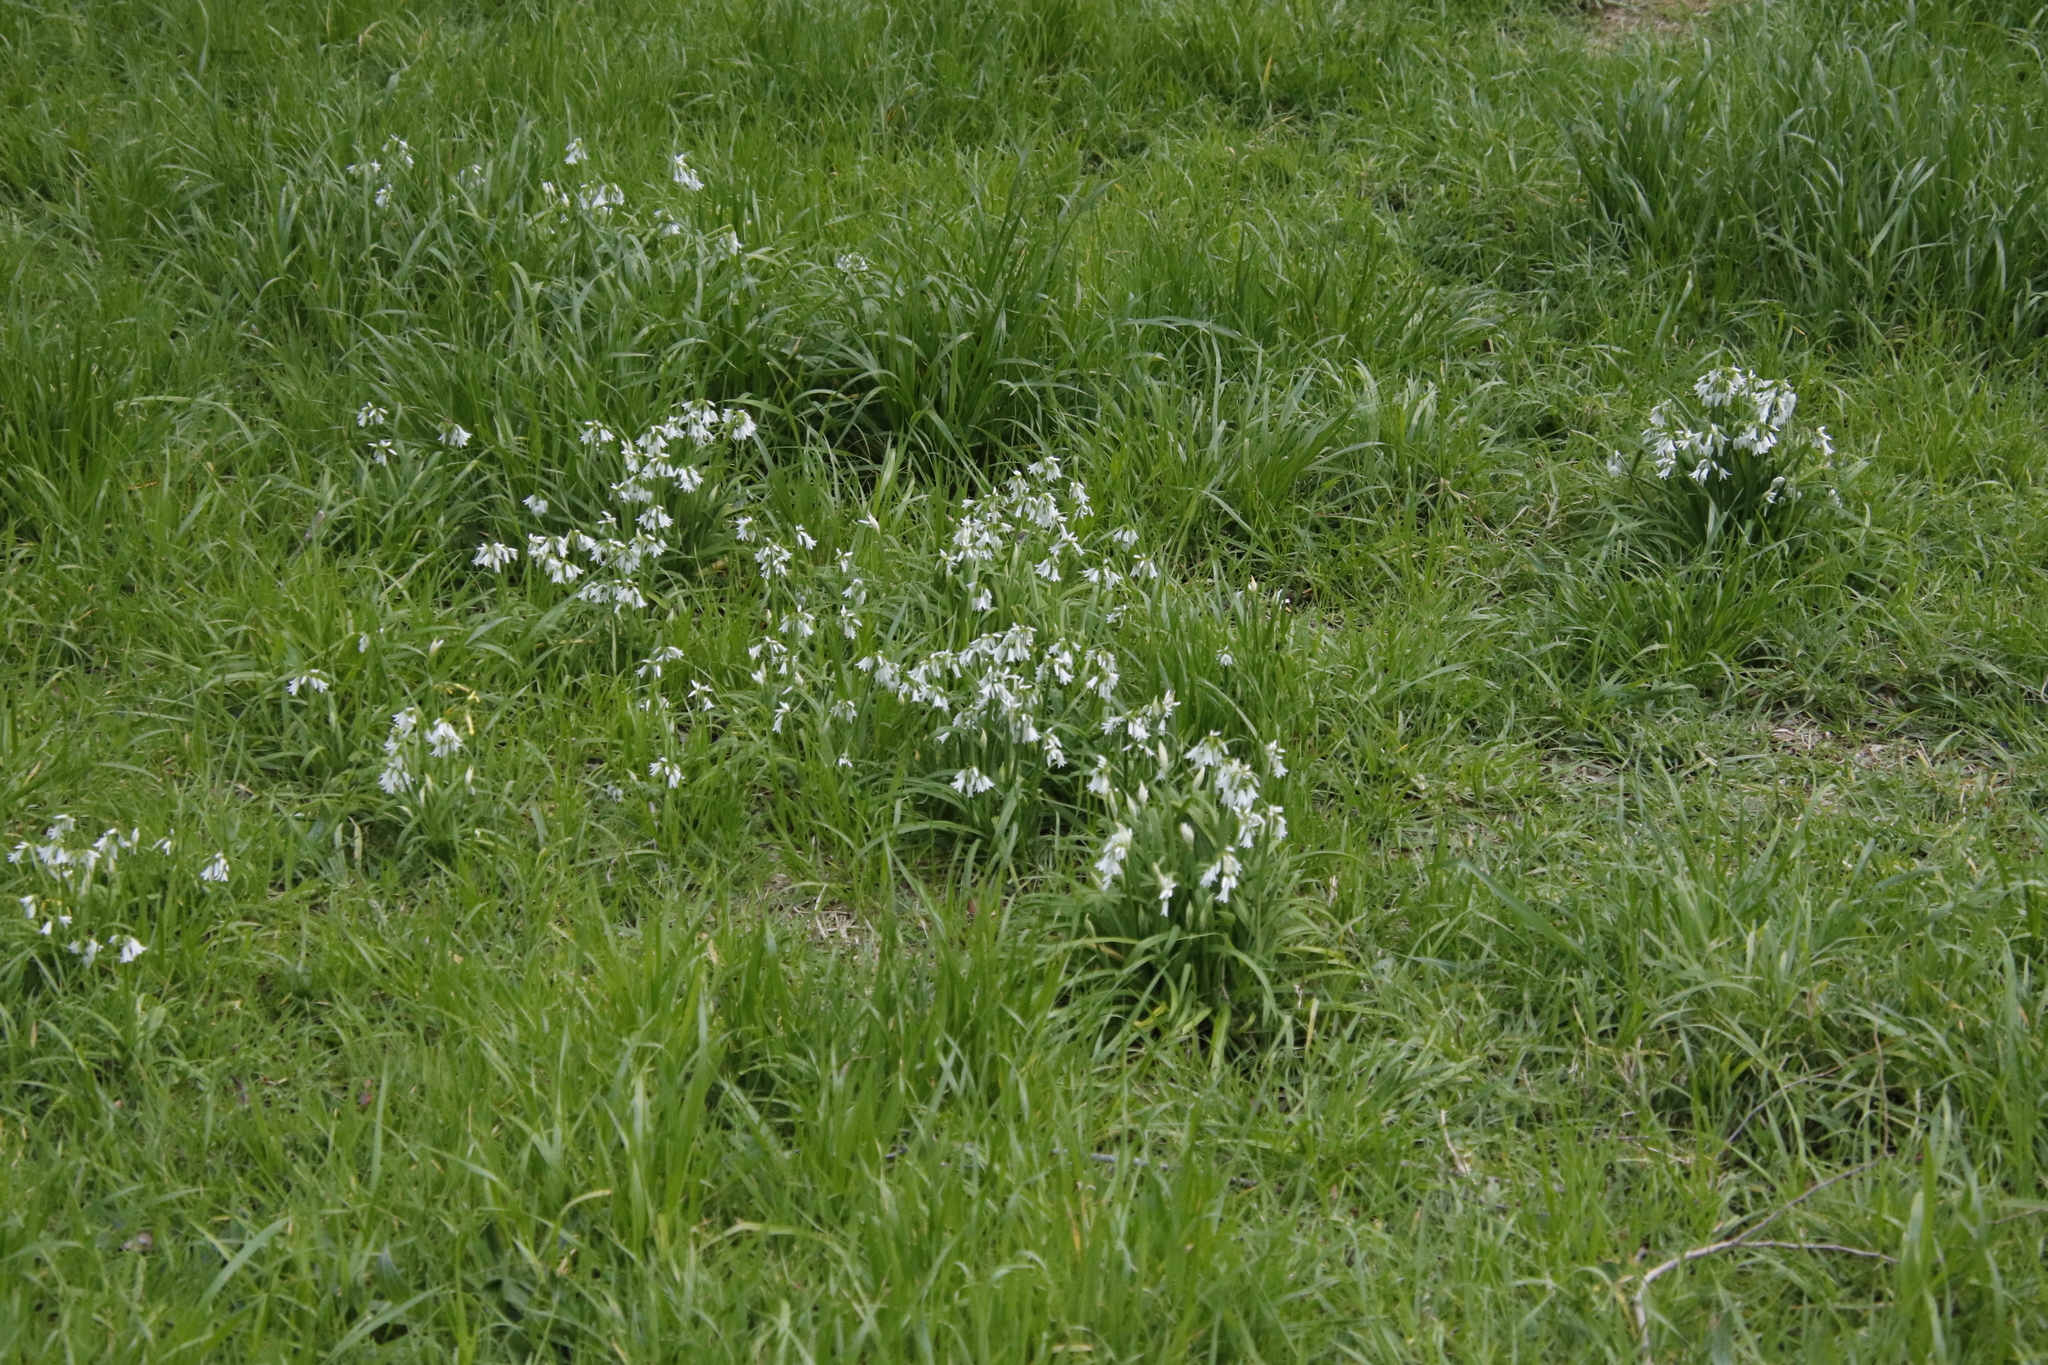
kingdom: Plantae
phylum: Tracheophyta
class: Liliopsida
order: Asparagales
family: Amaryllidaceae
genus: Allium
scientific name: Allium triquetrum
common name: Three-cornered garlic
